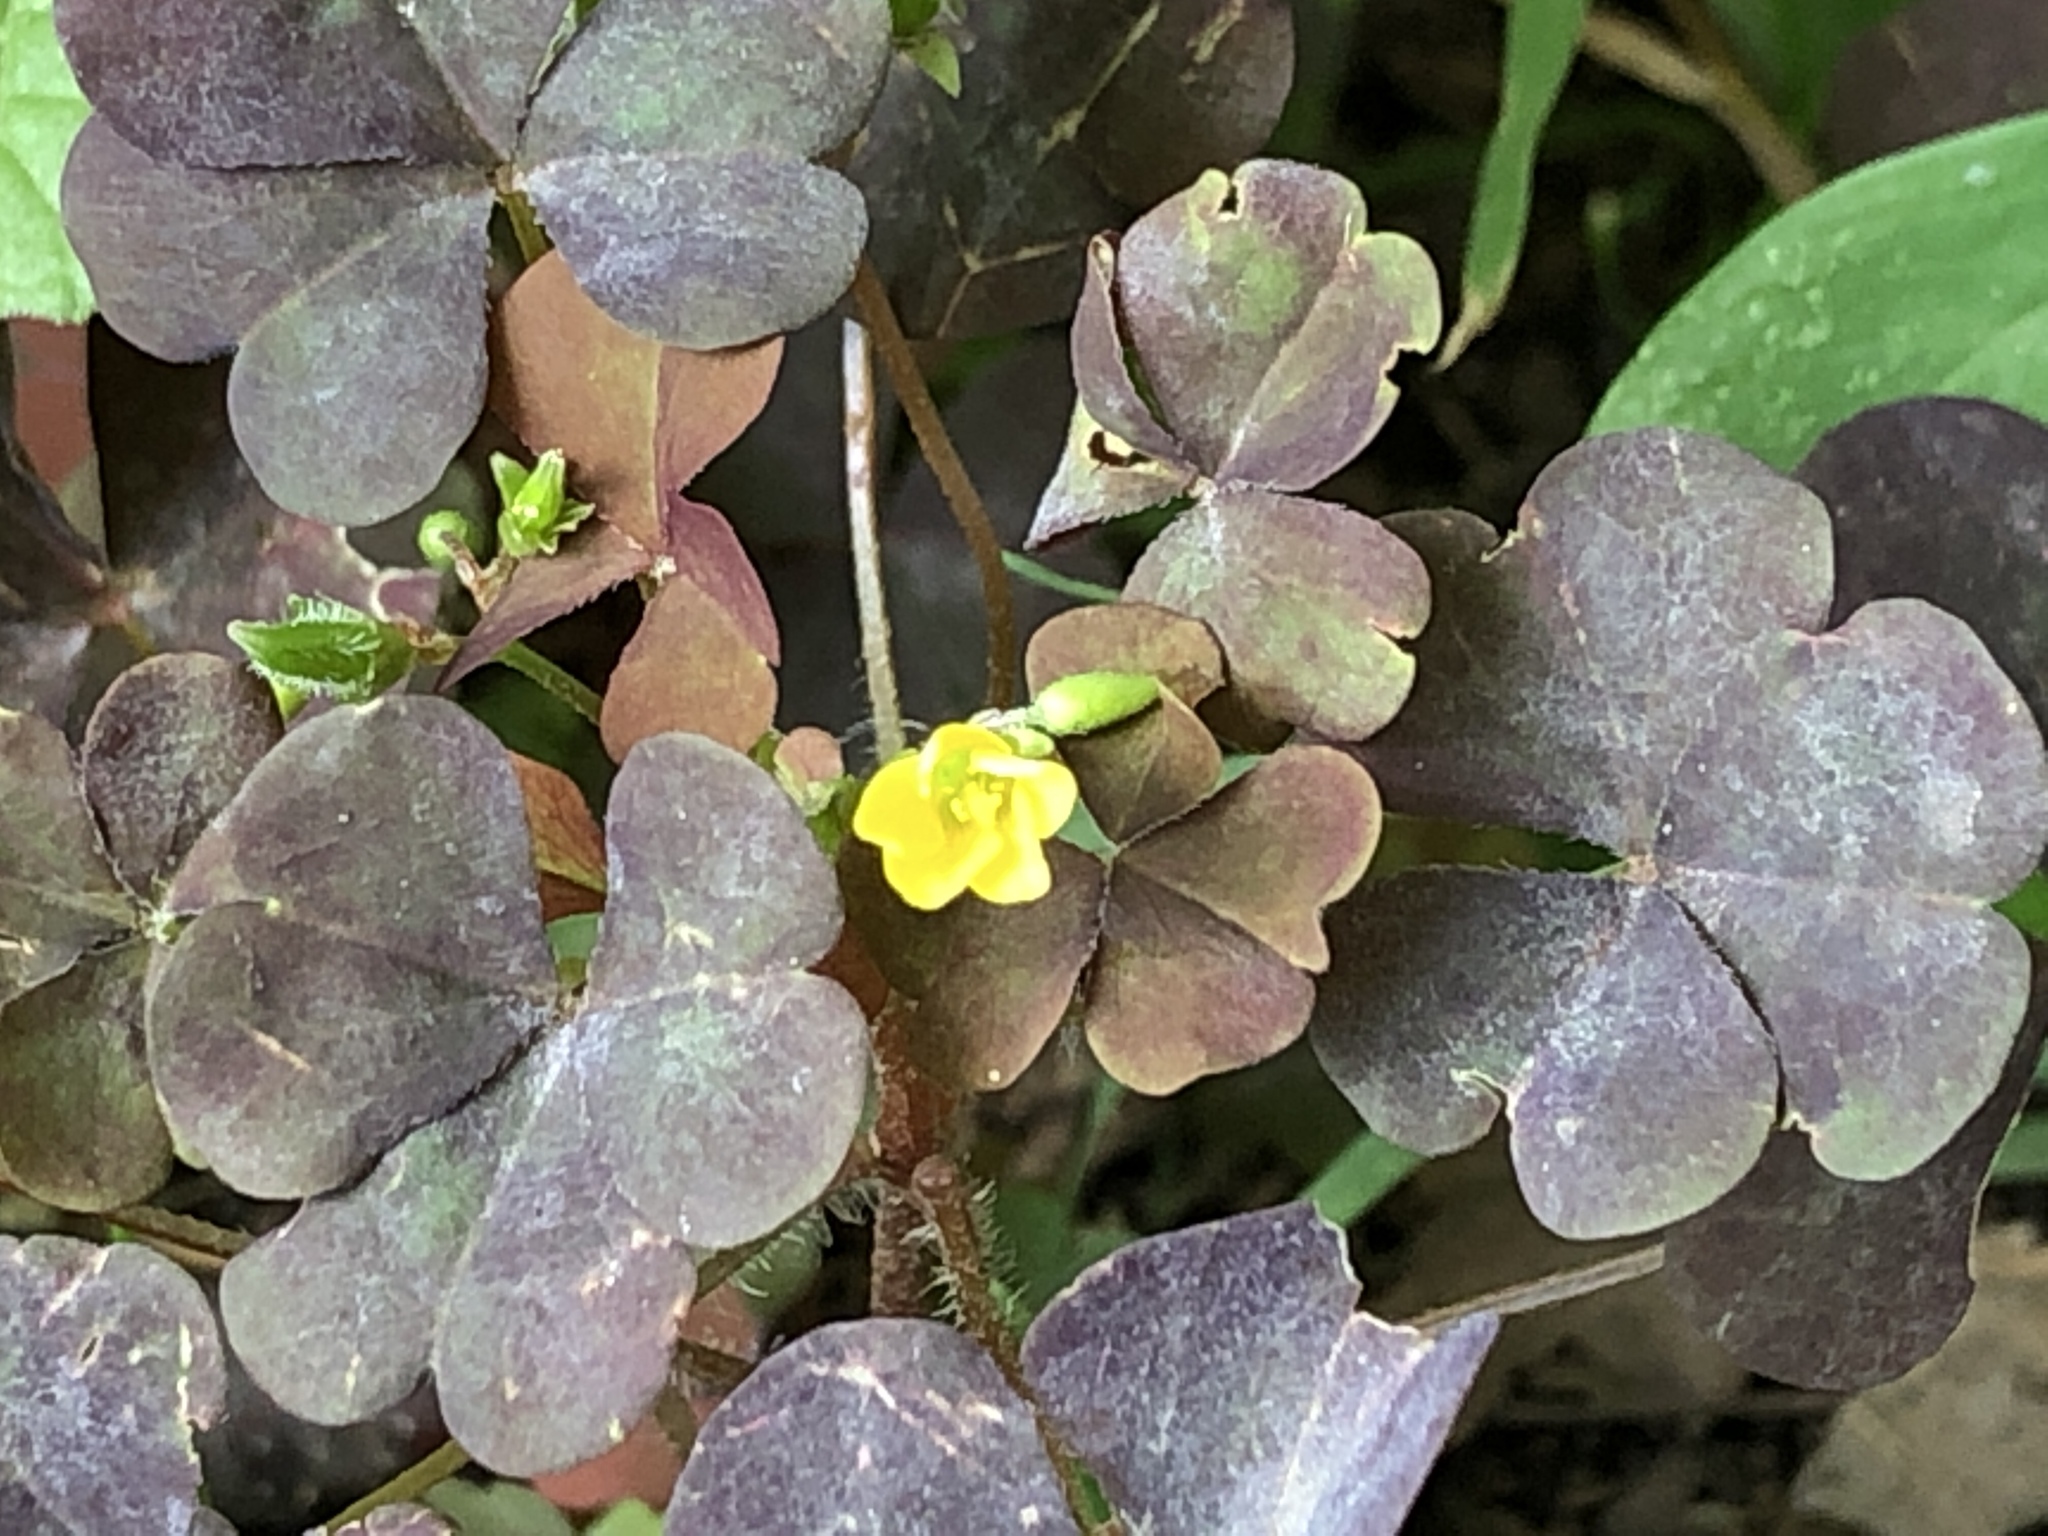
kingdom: Plantae
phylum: Tracheophyta
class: Magnoliopsida
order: Oxalidales
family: Oxalidaceae
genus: Oxalis
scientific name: Oxalis stricta
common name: Upright yellow-sorrel
